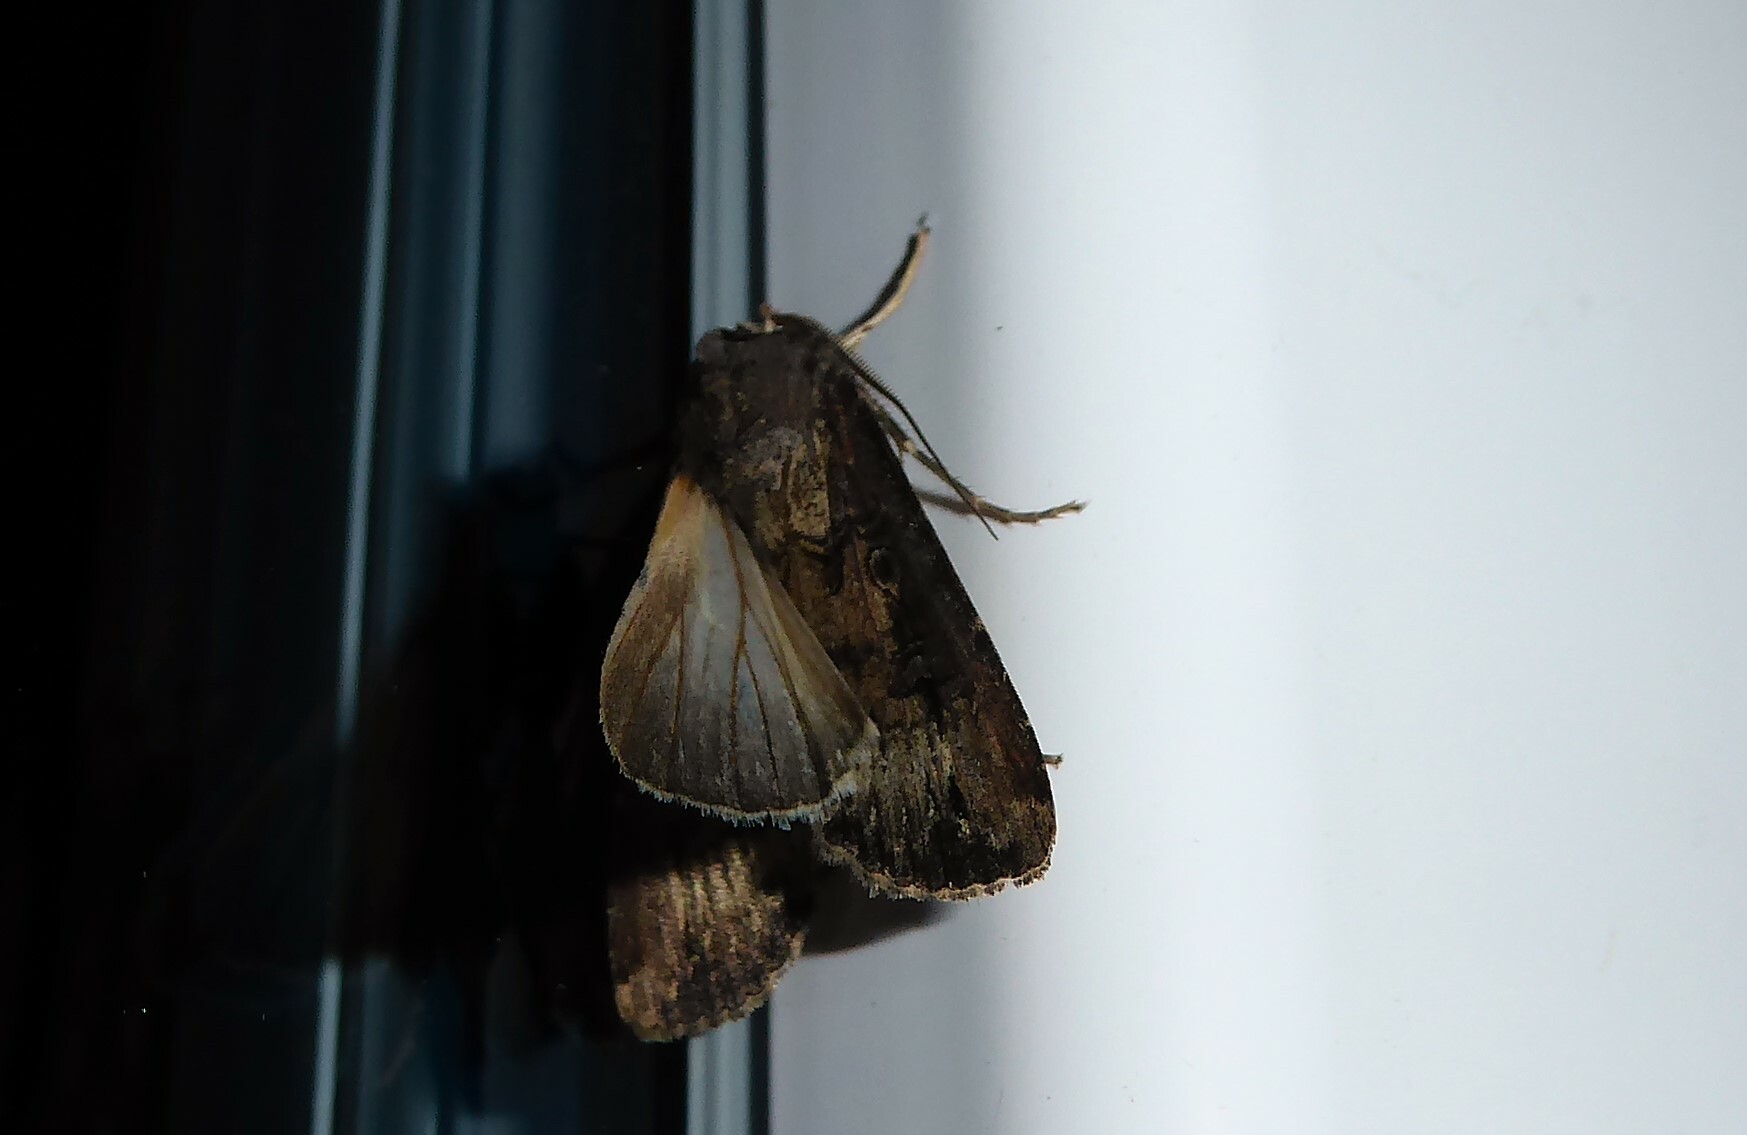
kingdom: Animalia
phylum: Arthropoda
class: Insecta
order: Lepidoptera
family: Noctuidae
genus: Agrotis
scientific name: Agrotis ipsilon
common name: Dark sword-grass
